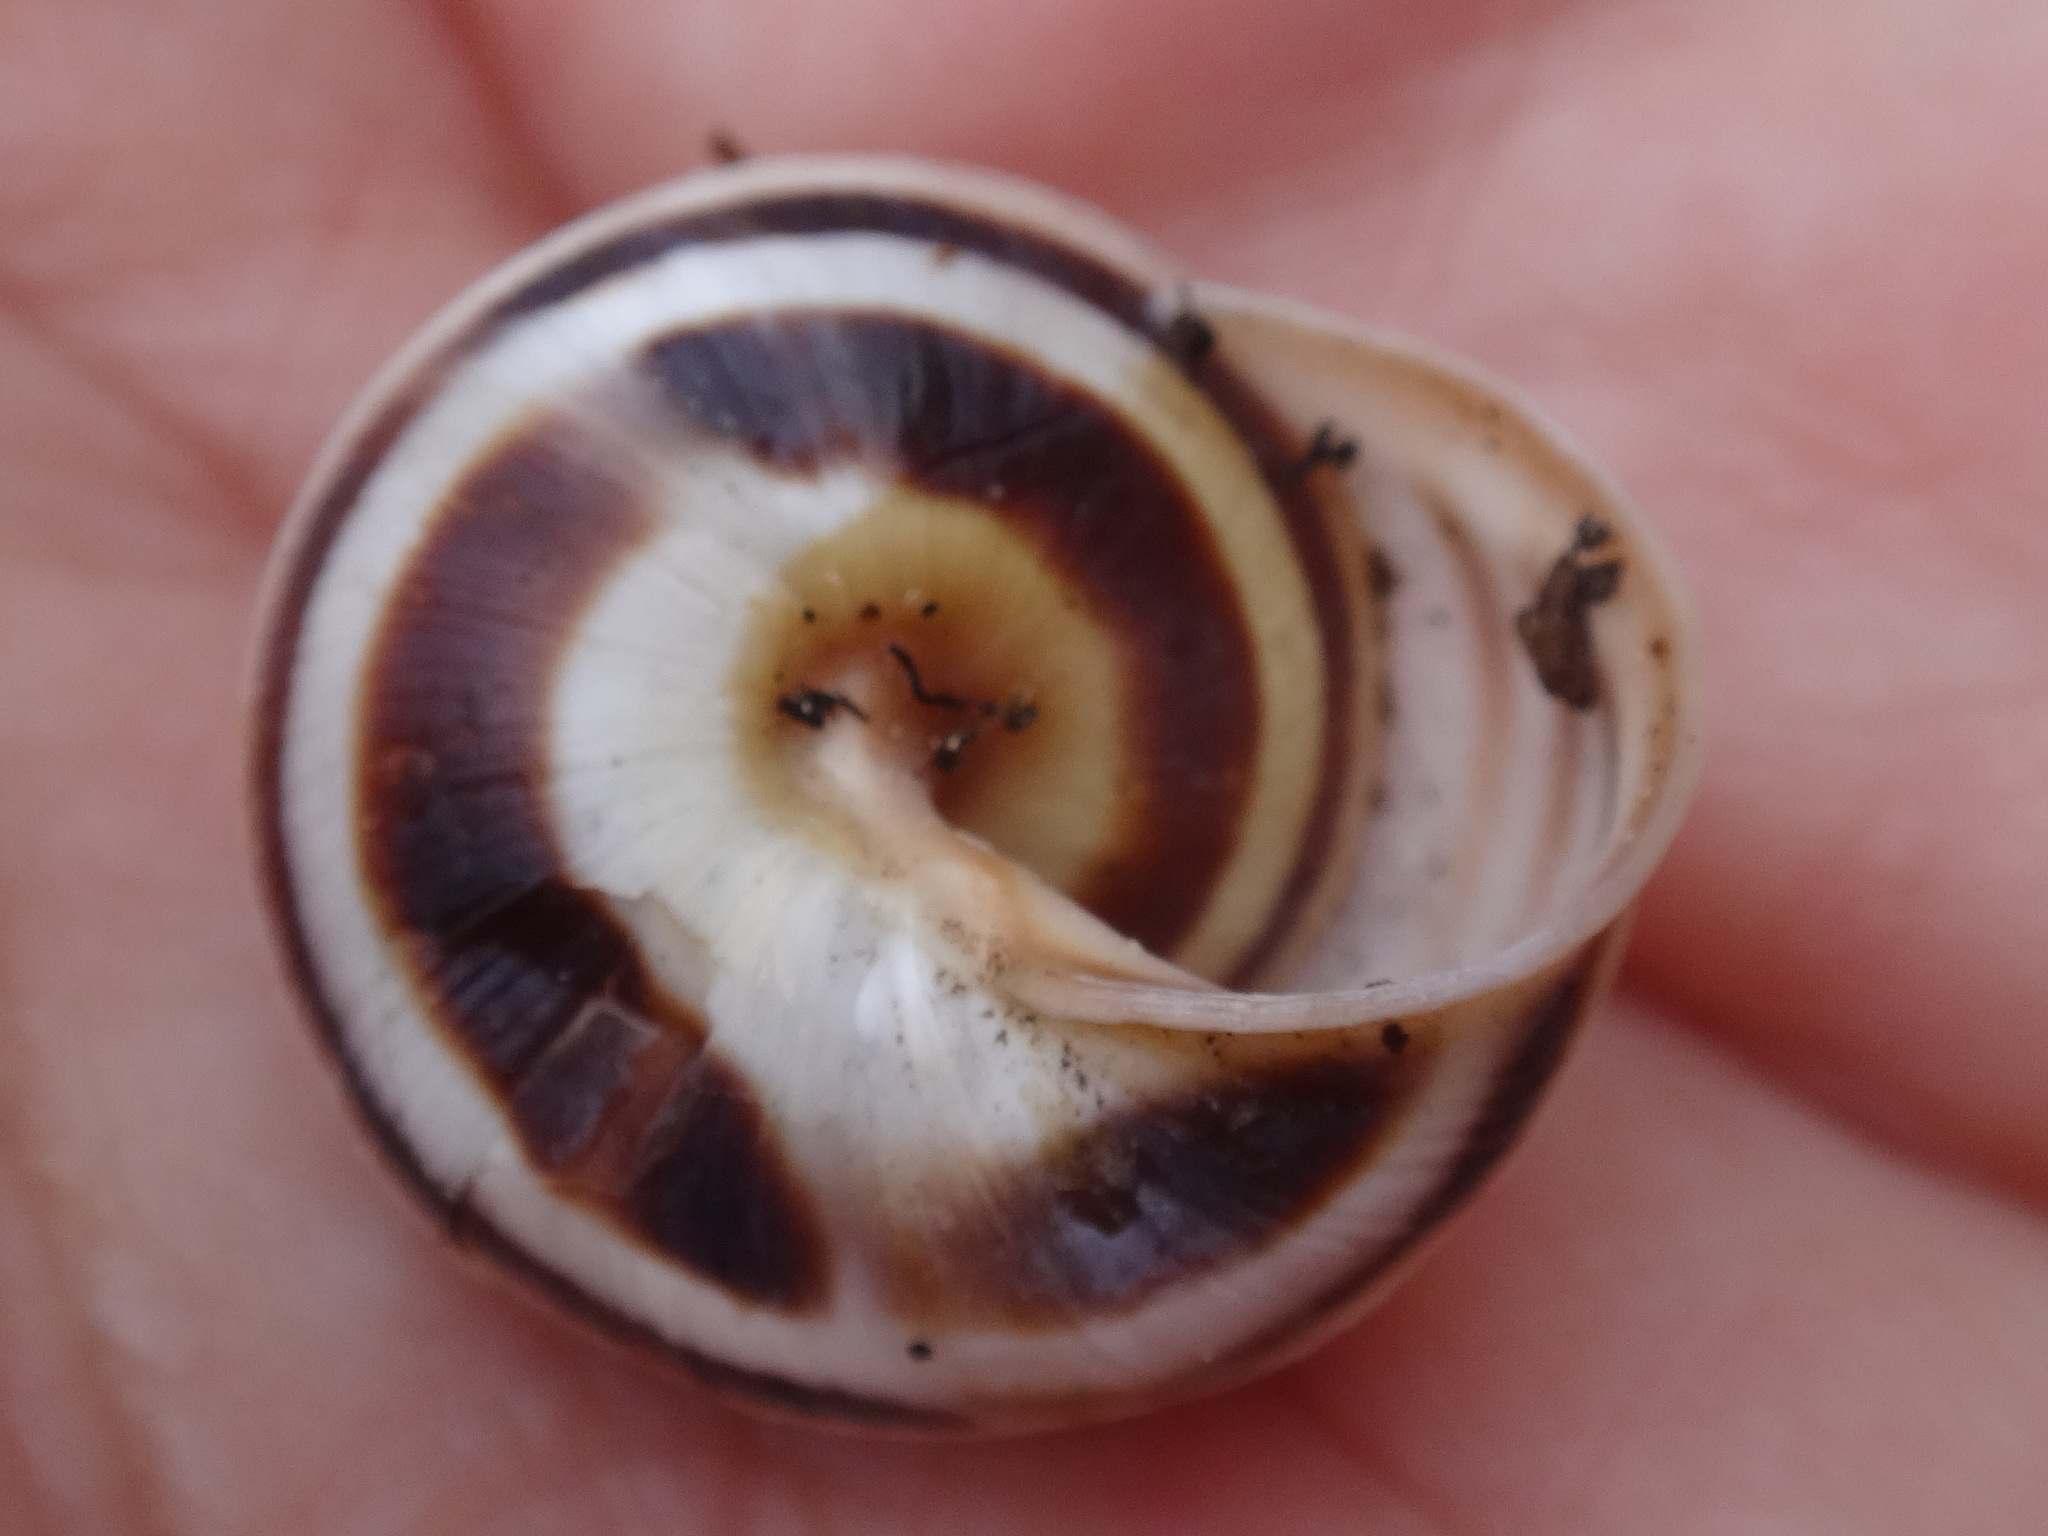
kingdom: Animalia
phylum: Mollusca
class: Gastropoda
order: Stylommatophora
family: Helicidae
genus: Caucasotachea
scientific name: Caucasotachea vindobonensis
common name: European helicid land snail
